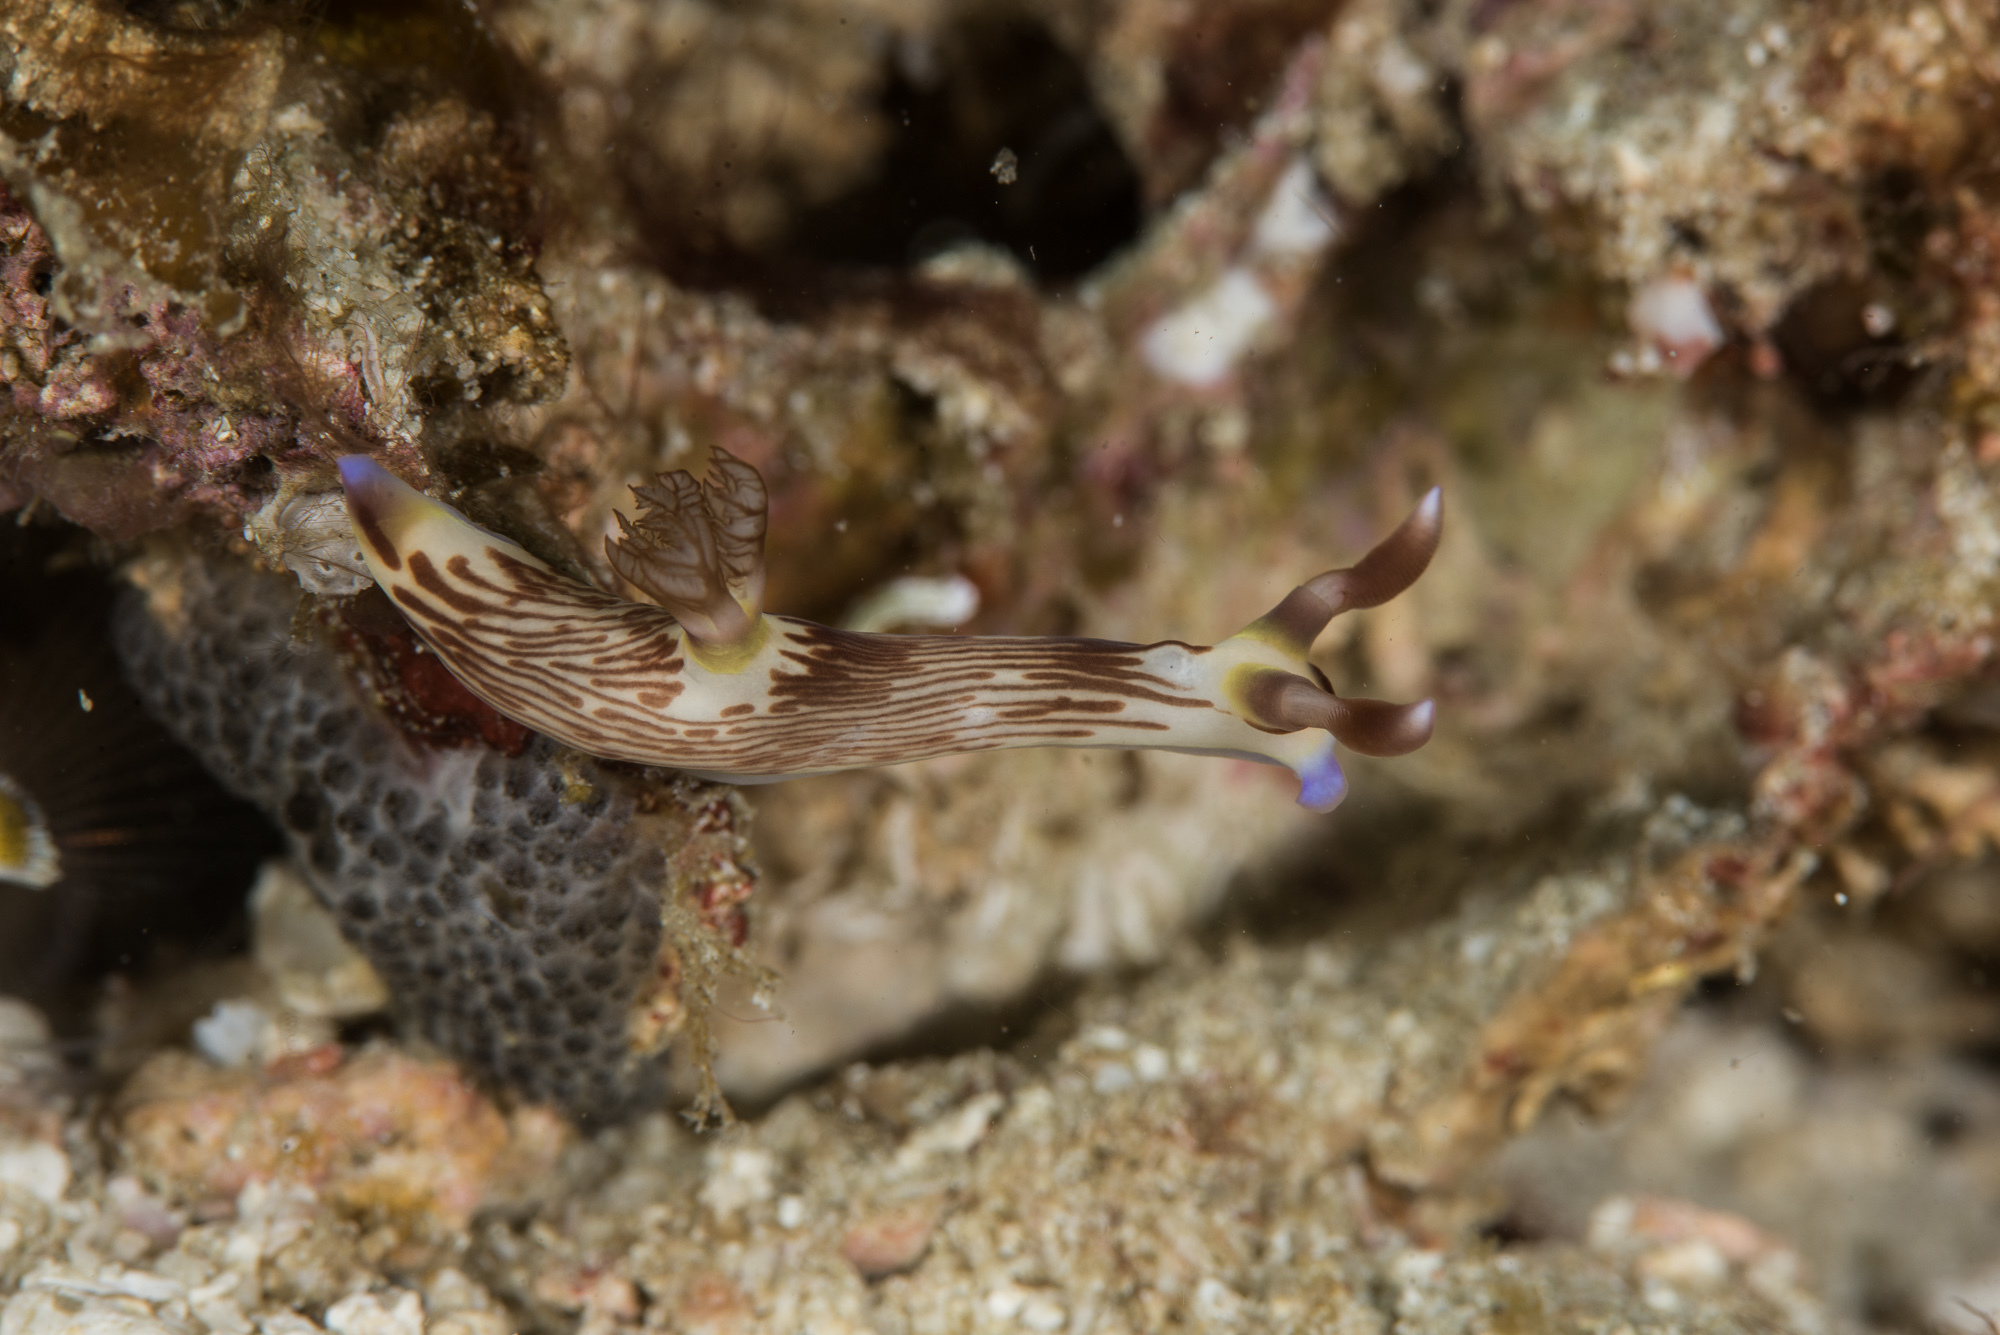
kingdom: Animalia
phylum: Mollusca
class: Gastropoda
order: Nudibranchia
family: Polyceridae
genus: Nembrotha
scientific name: Nembrotha lineolata
